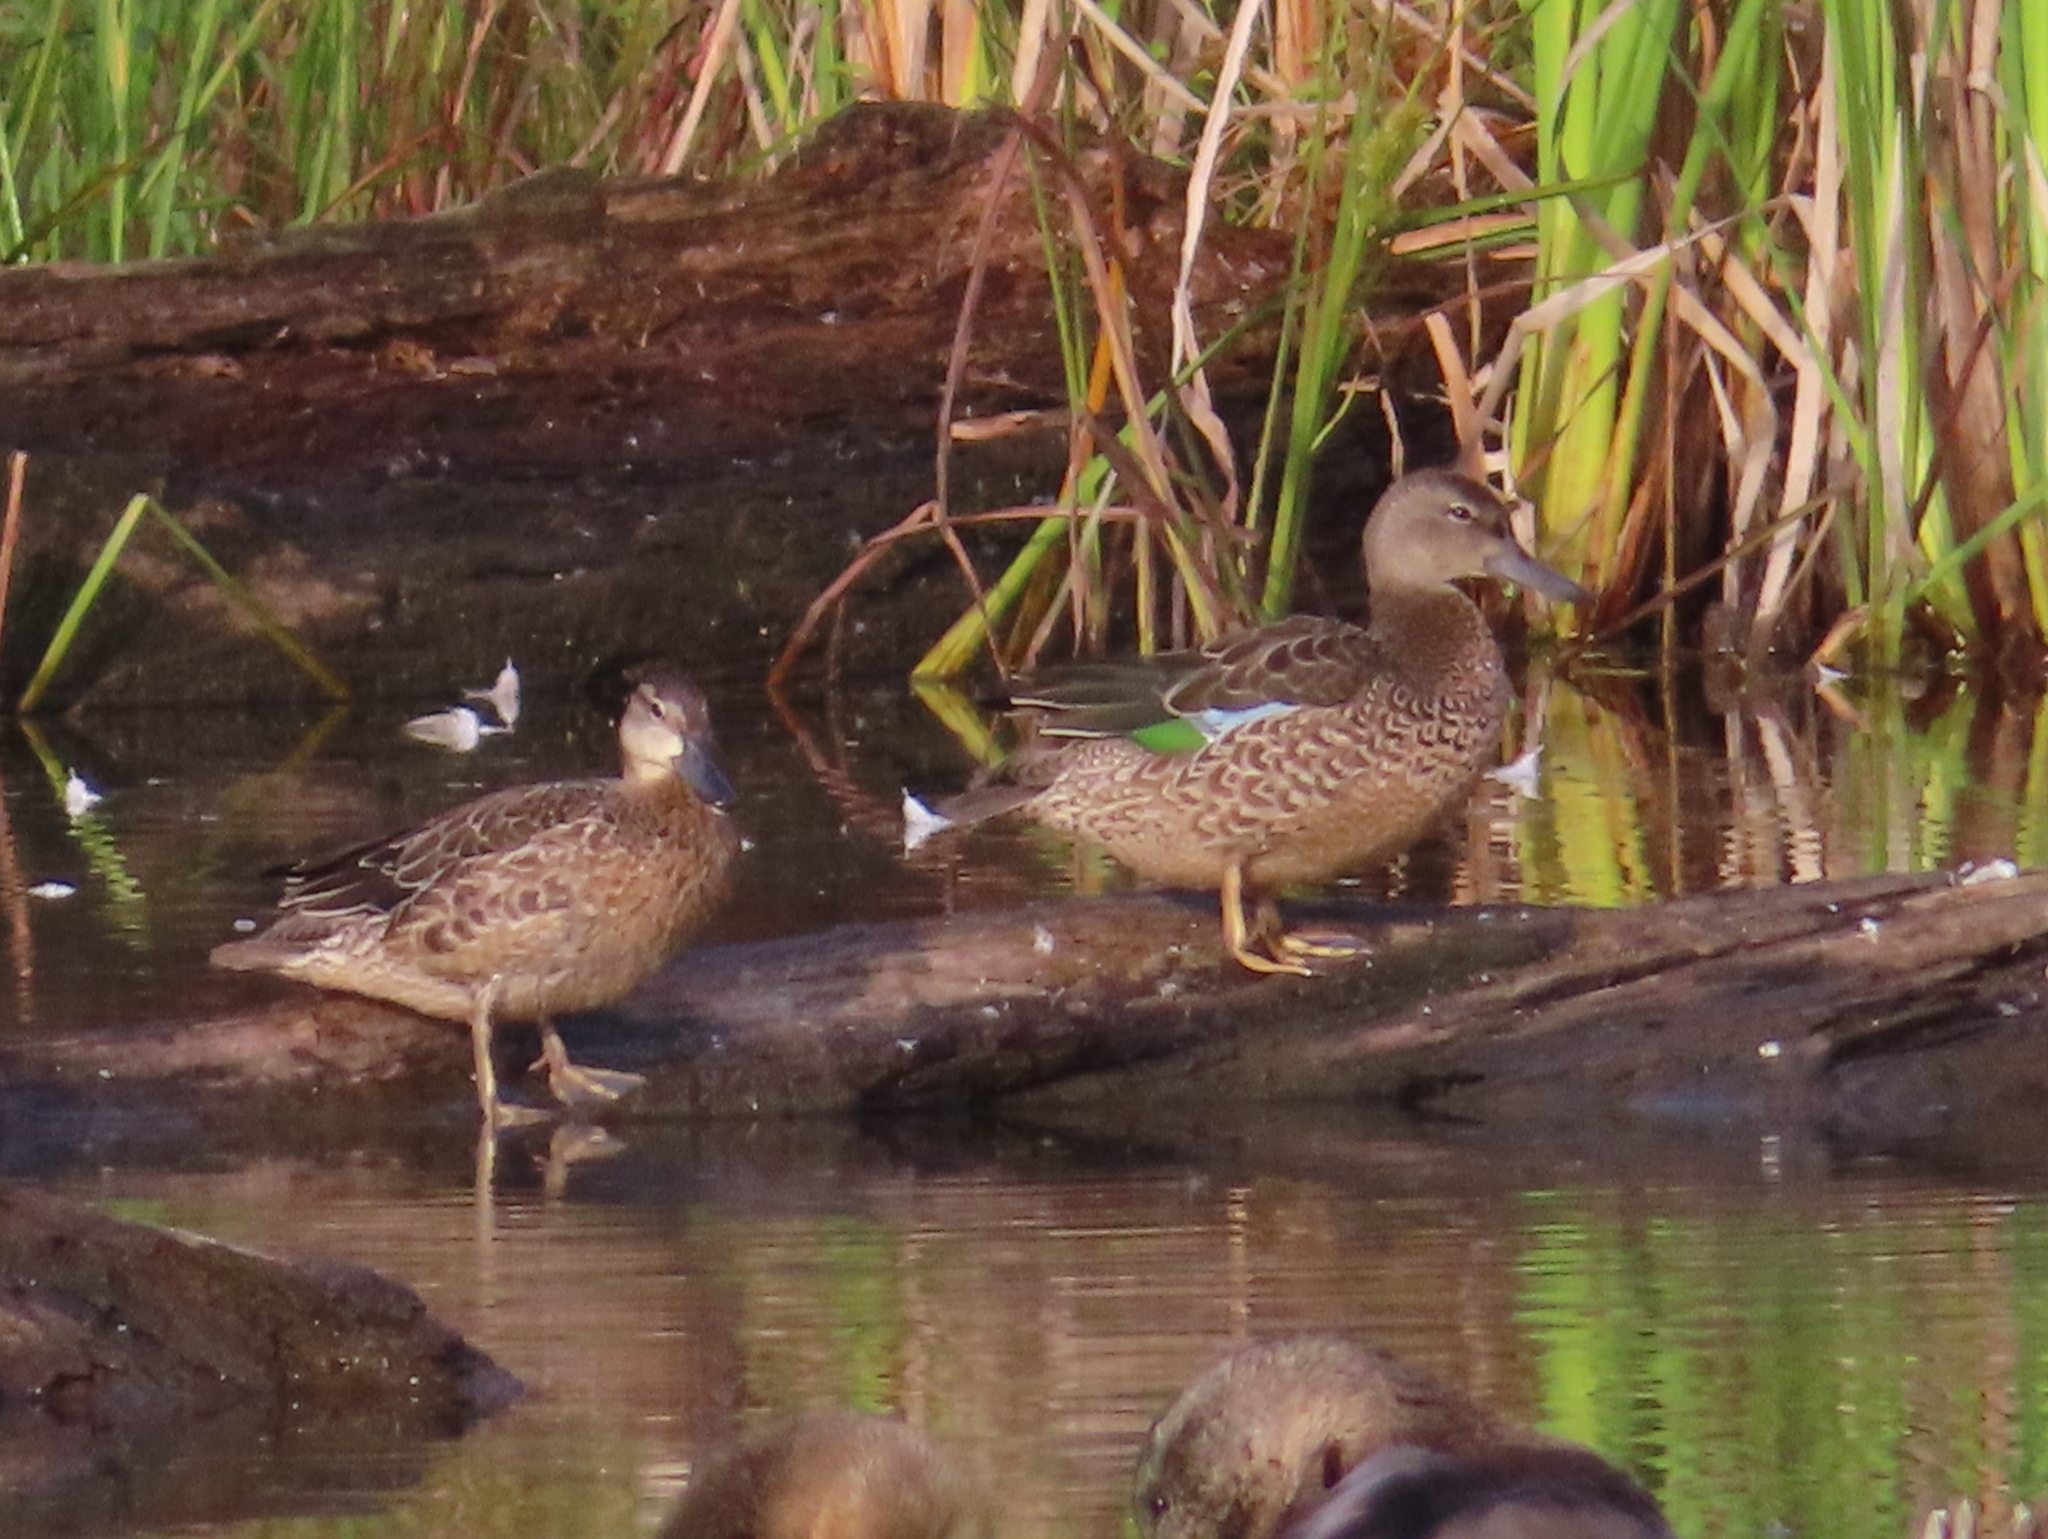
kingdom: Animalia
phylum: Chordata
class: Aves
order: Anseriformes
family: Anatidae
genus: Spatula
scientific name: Spatula discors
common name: Blue-winged teal
